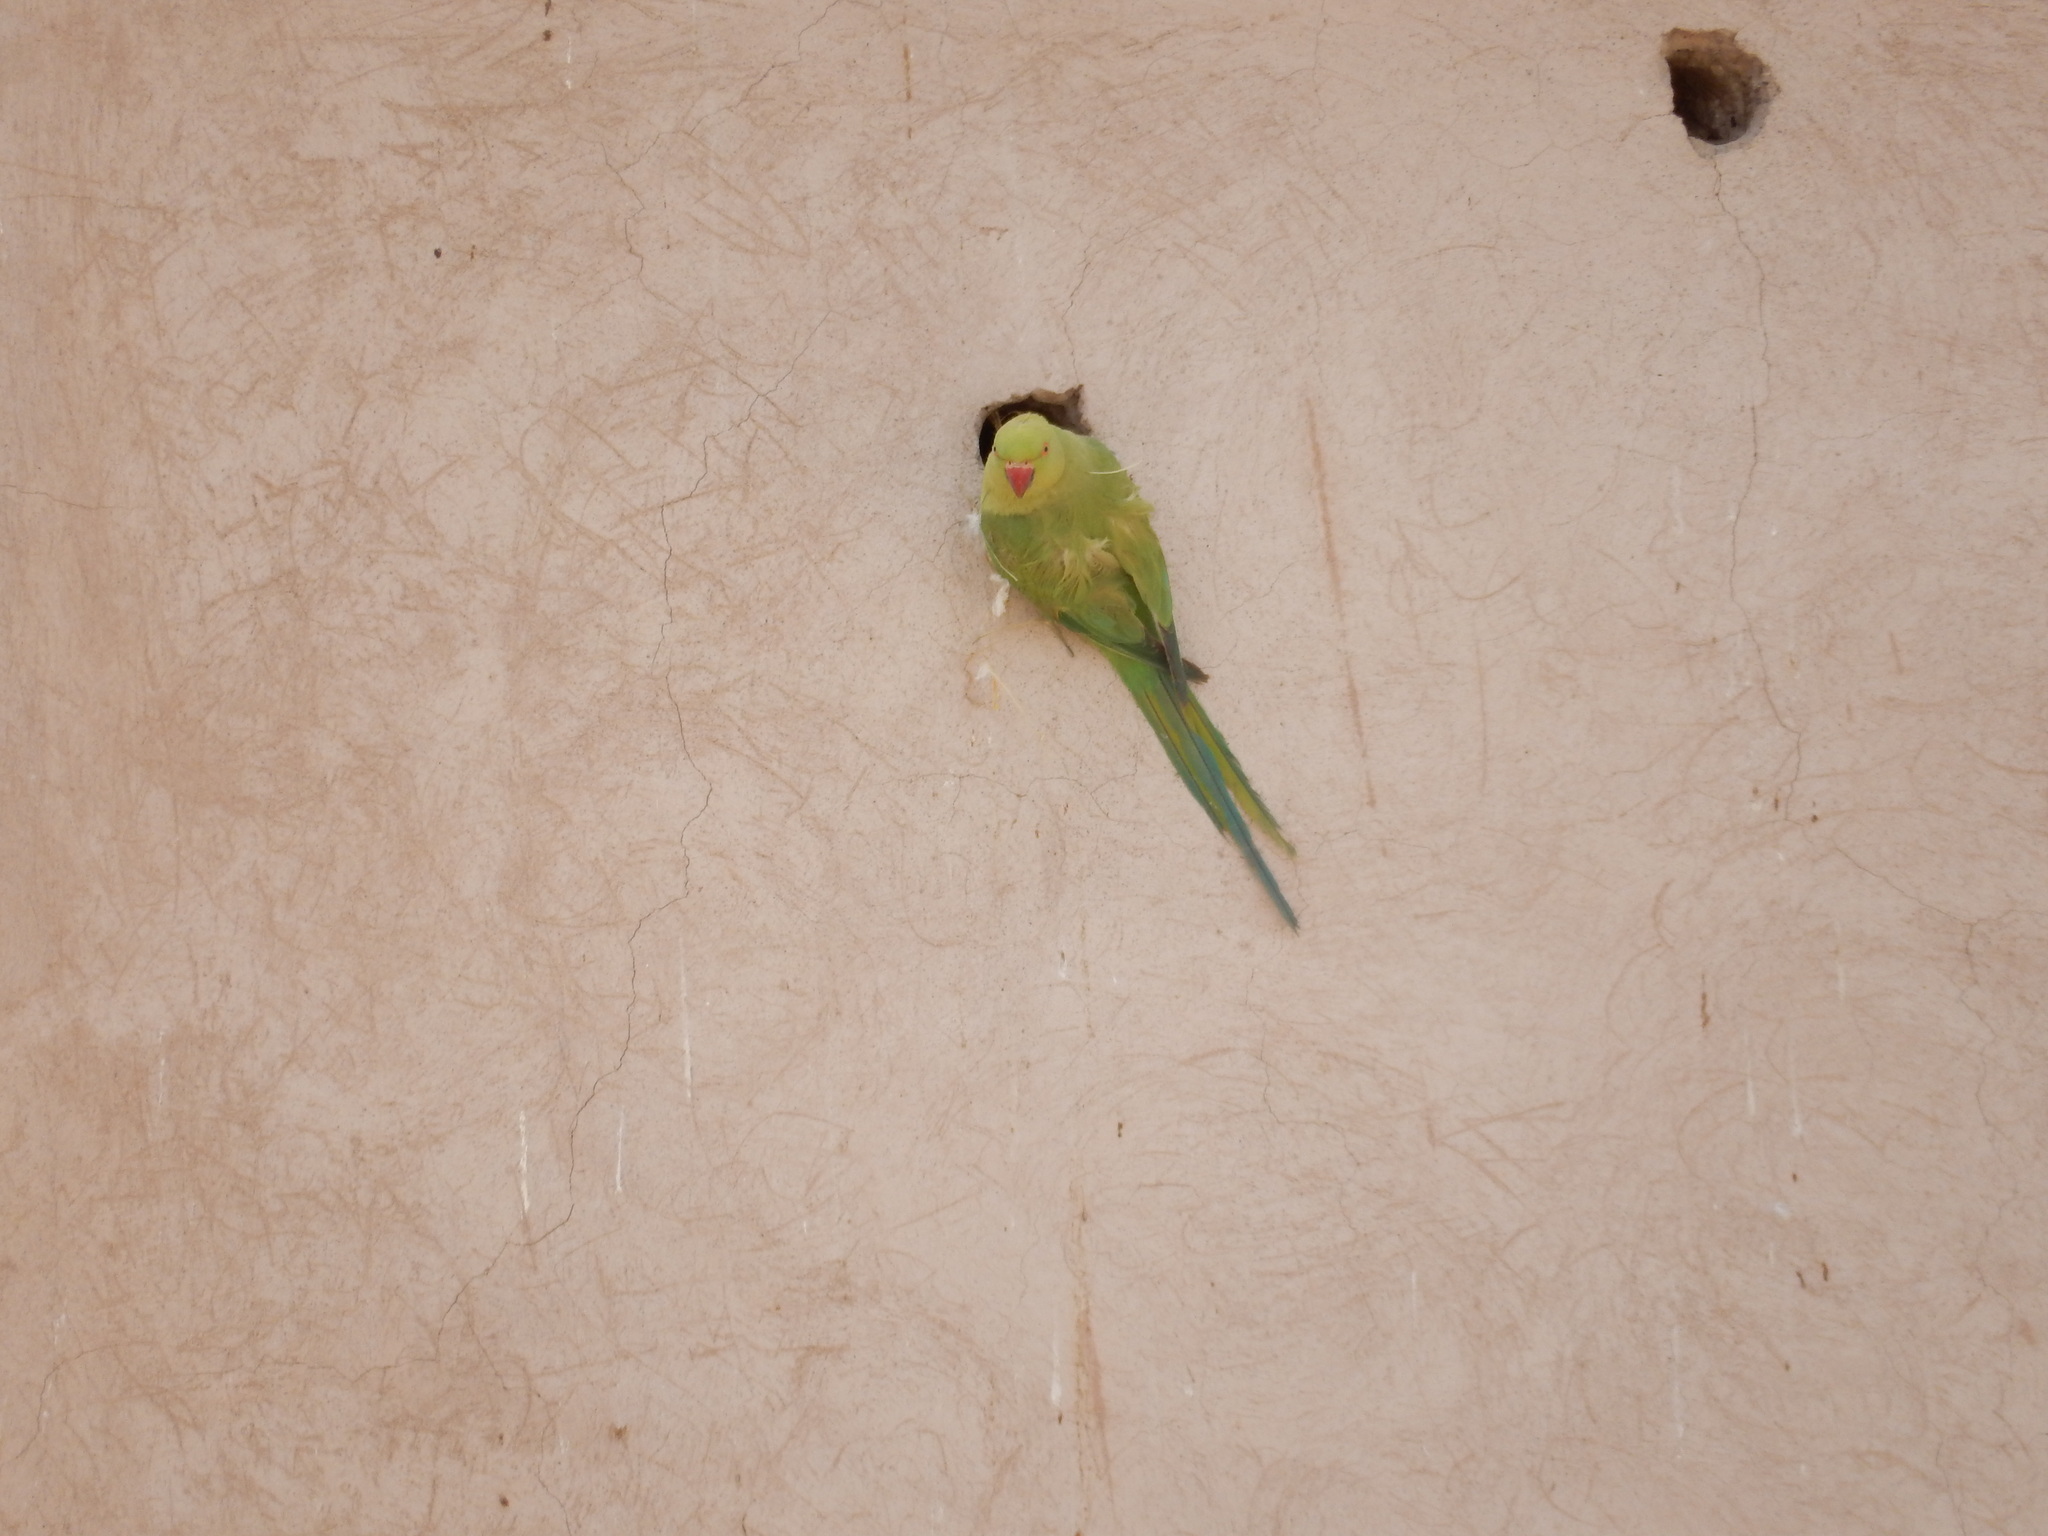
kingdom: Animalia
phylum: Chordata
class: Aves
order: Psittaciformes
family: Psittacidae
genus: Psittacula
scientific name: Psittacula krameri
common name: Rose-ringed parakeet
